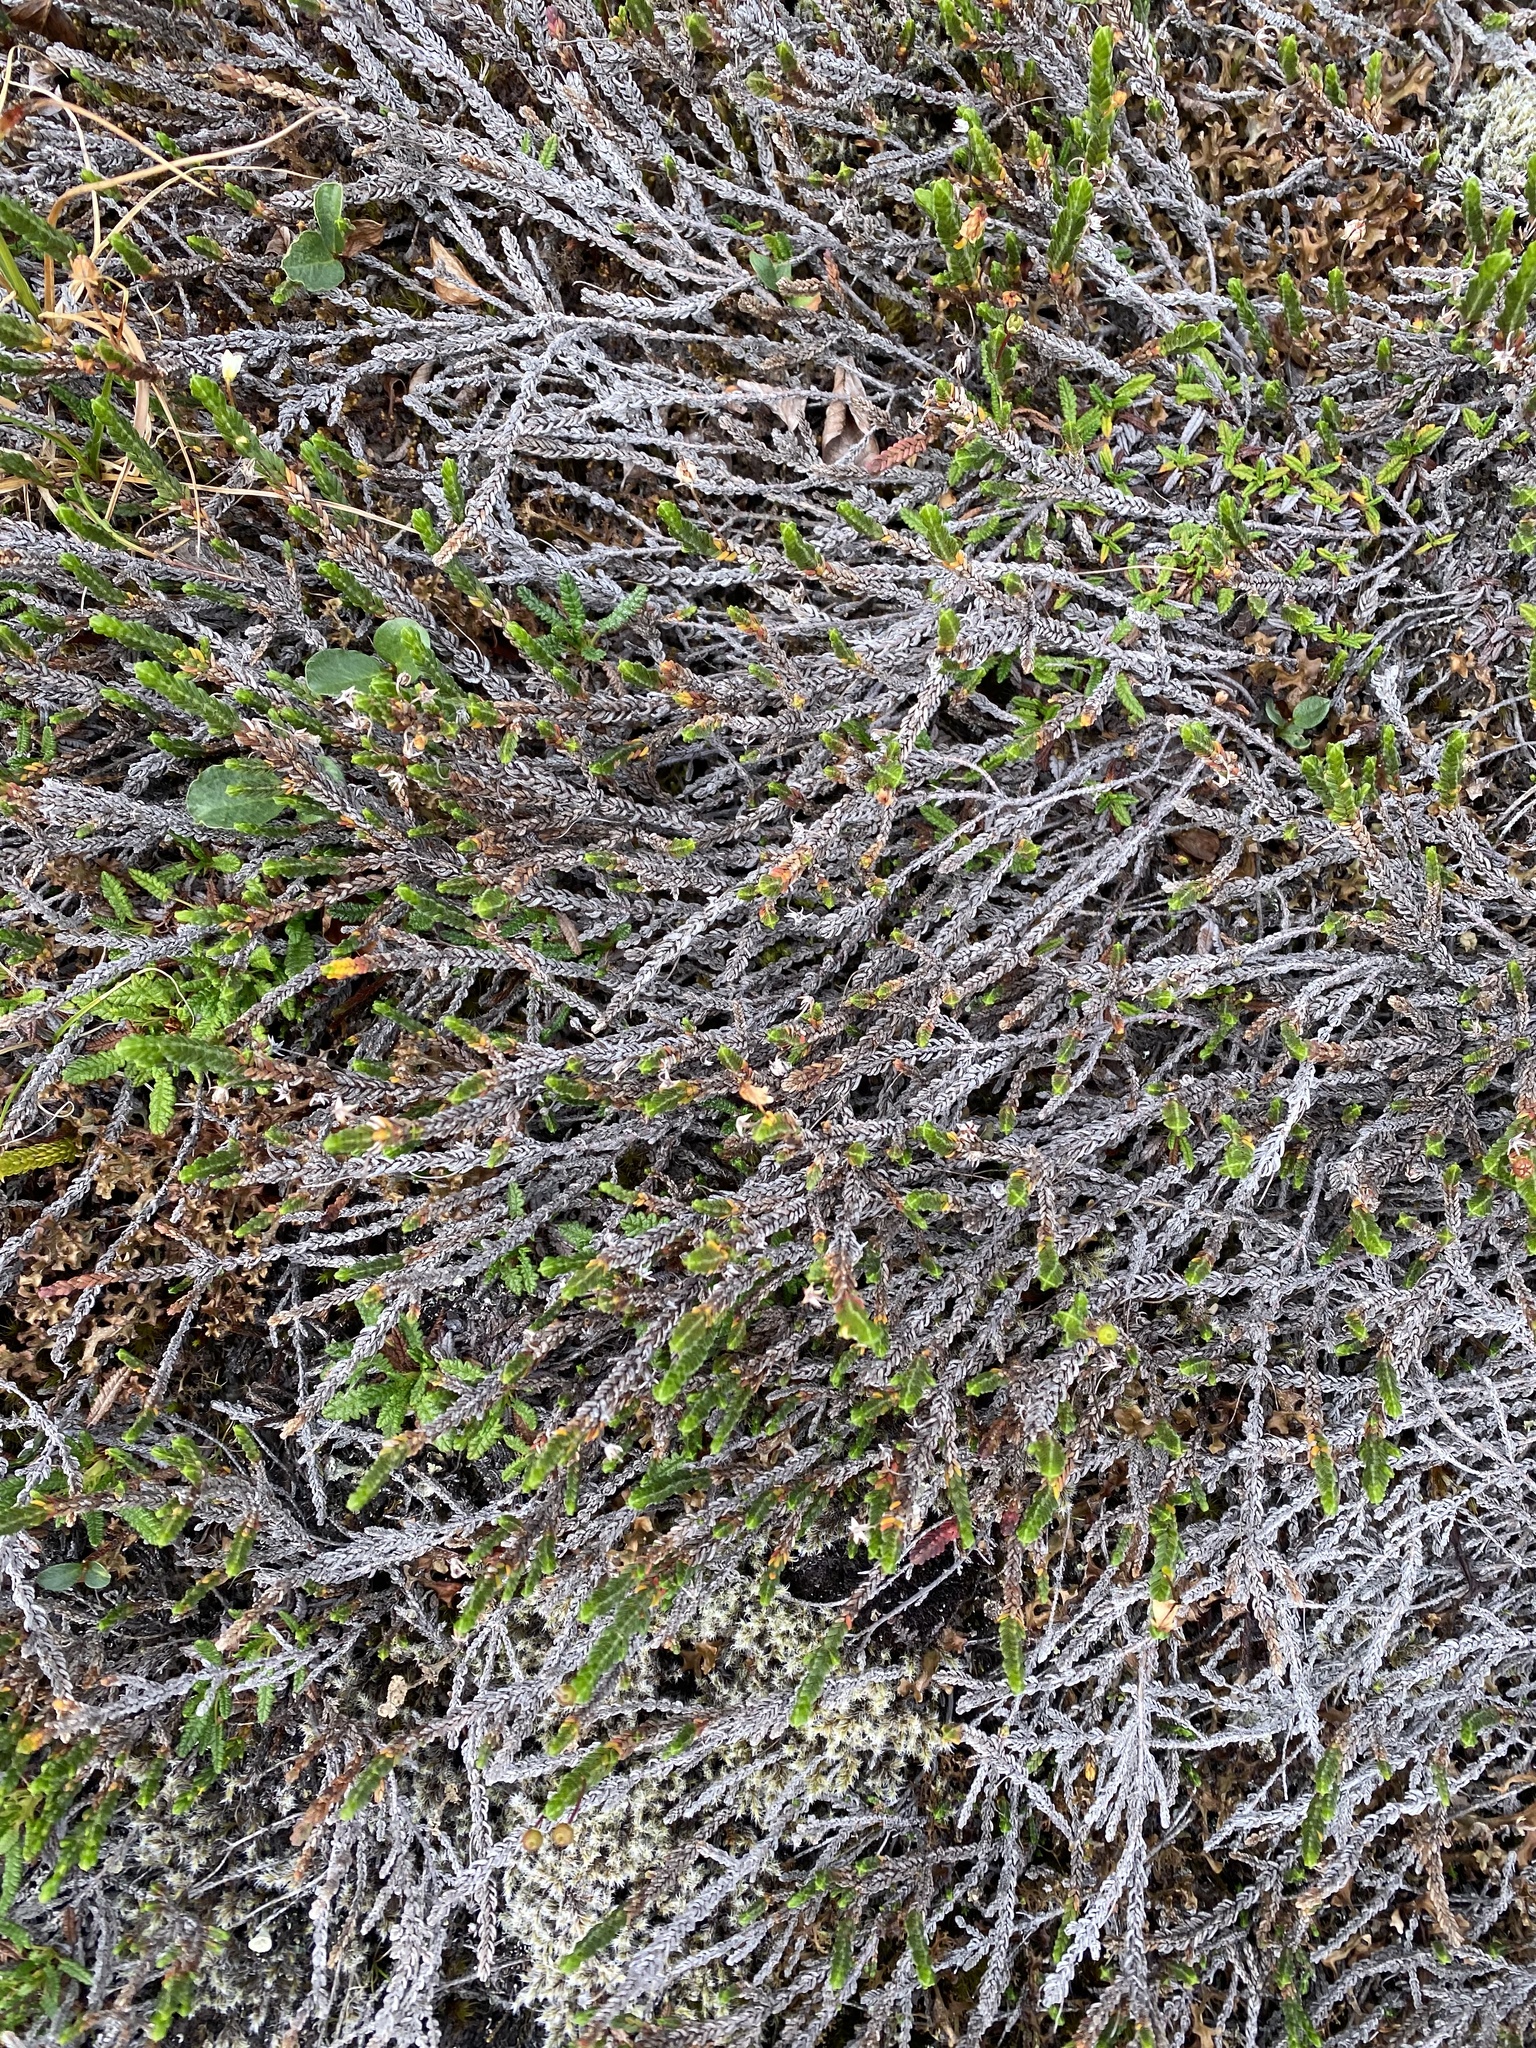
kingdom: Plantae
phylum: Tracheophyta
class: Magnoliopsida
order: Ericales
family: Ericaceae
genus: Cassiope
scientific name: Cassiope tetragona
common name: Arctic bell heather
